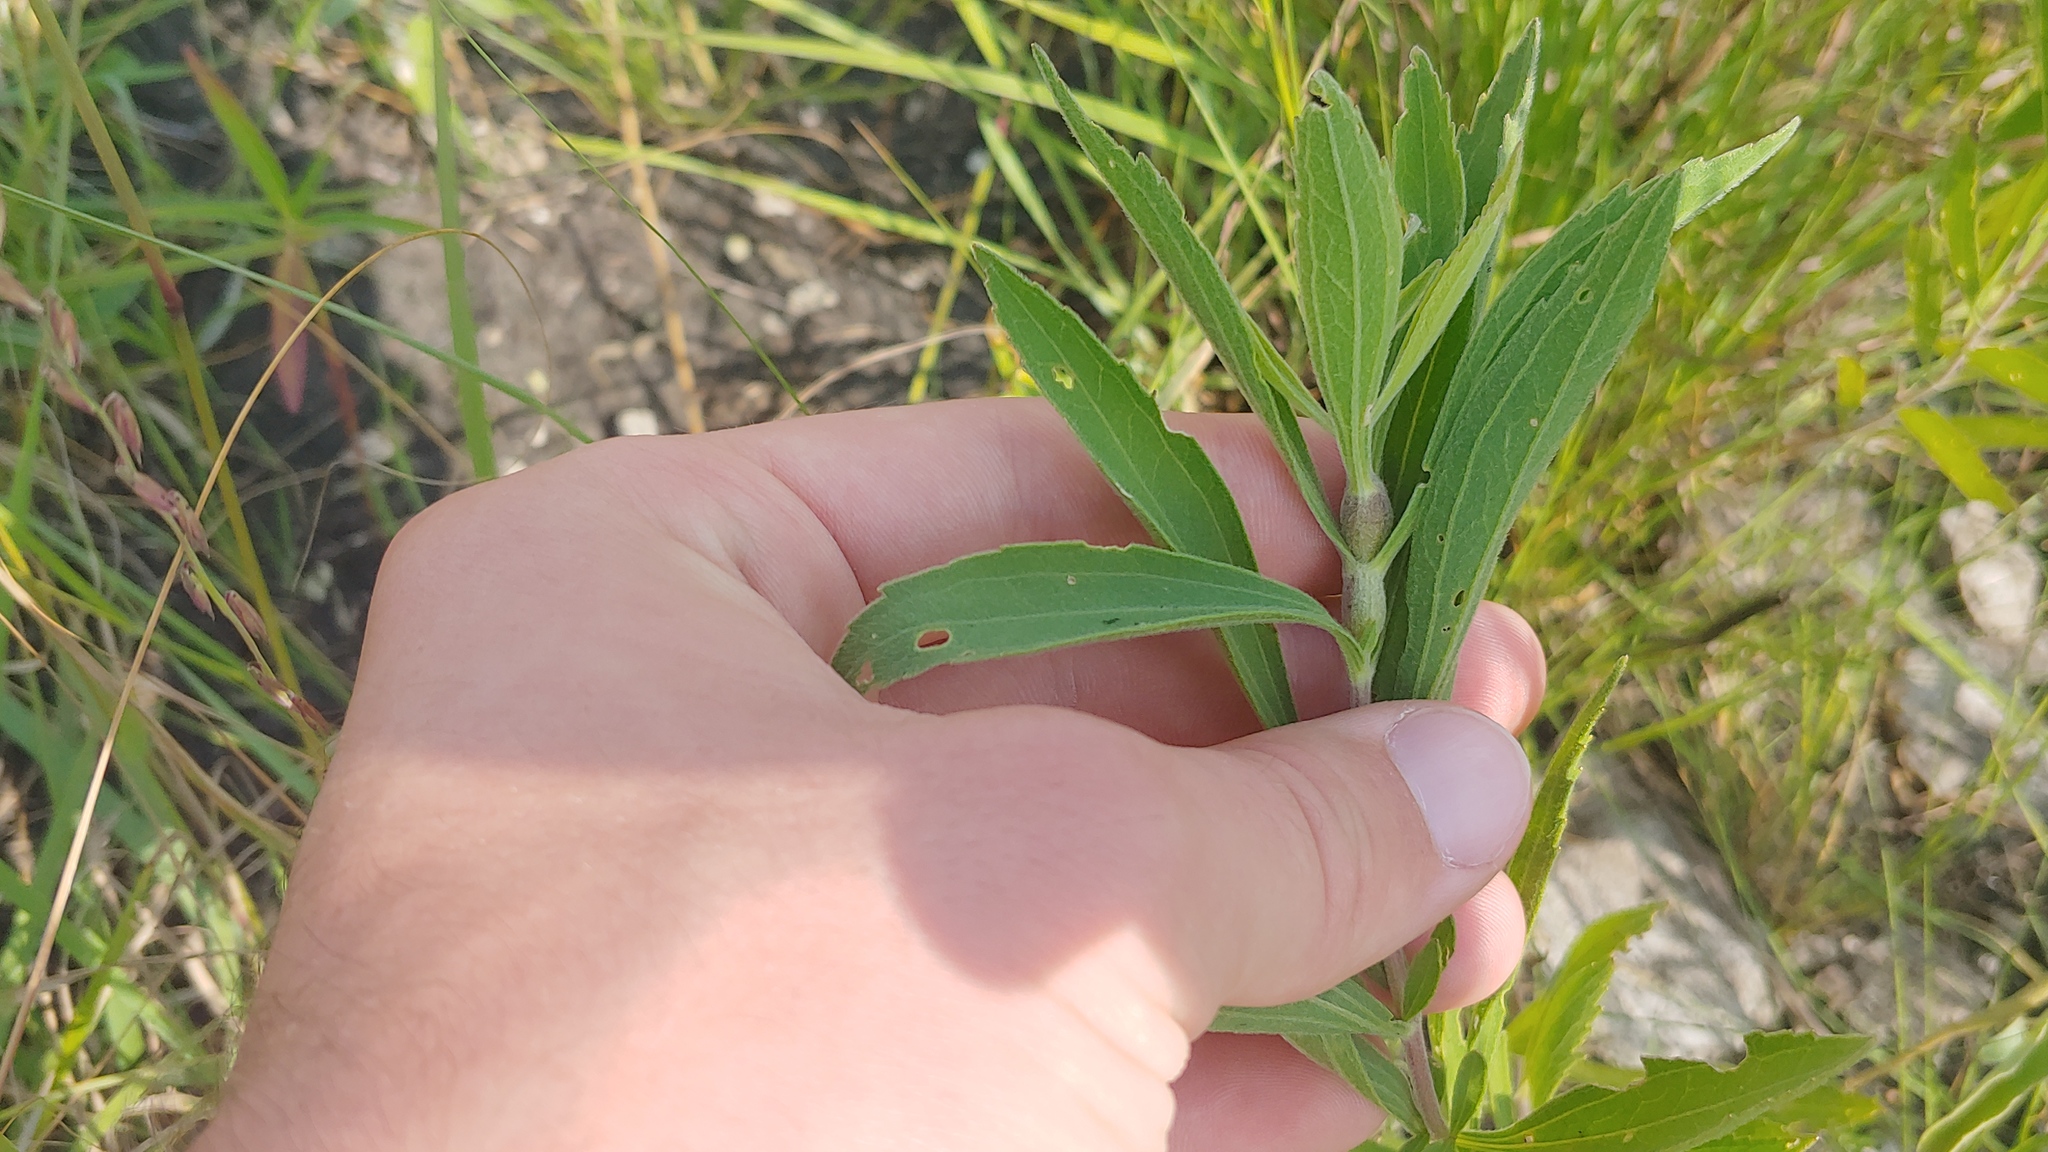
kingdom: Plantae
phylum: Tracheophyta
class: Magnoliopsida
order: Asterales
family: Asteraceae
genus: Eupatorium
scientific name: Eupatorium altissimum
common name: Tall thoroughwort
